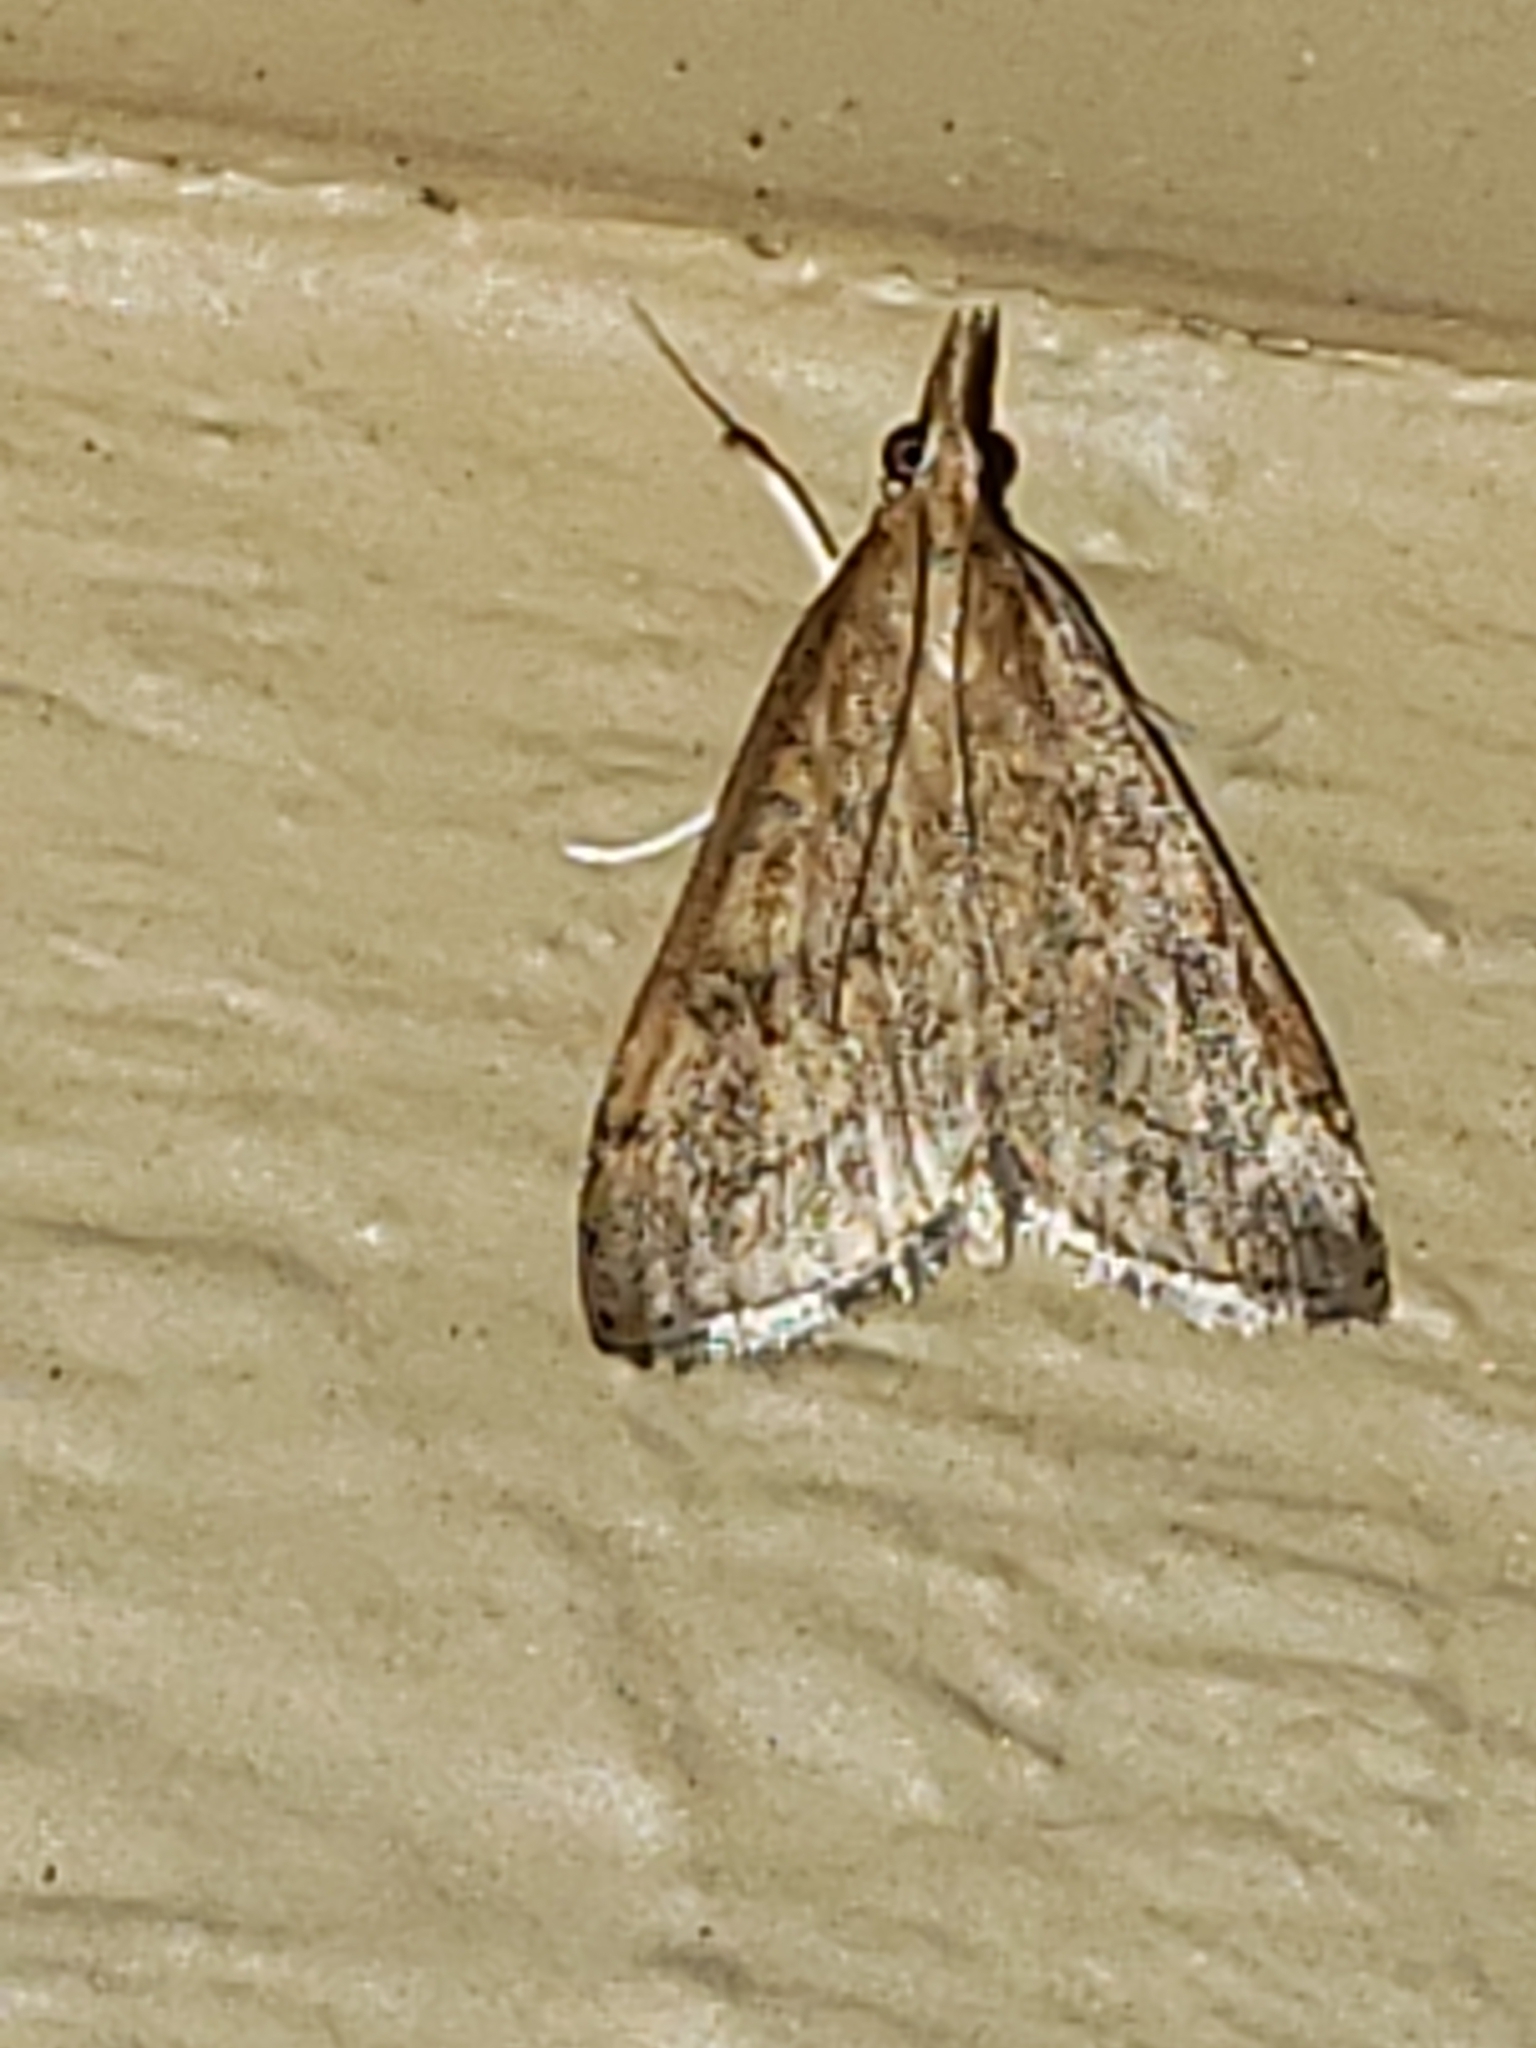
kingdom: Animalia
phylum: Arthropoda
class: Insecta
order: Lepidoptera
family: Crambidae
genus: Udea
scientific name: Udea rubigalis
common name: Celery leaftier moth
